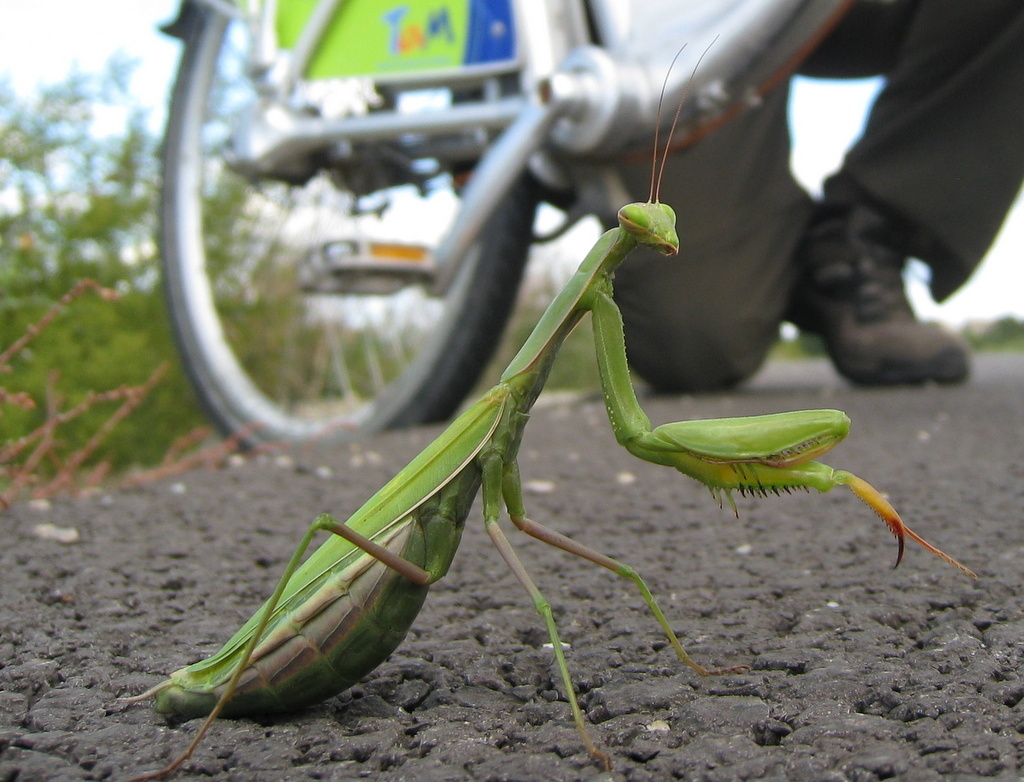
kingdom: Animalia
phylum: Arthropoda
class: Insecta
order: Mantodea
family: Mantidae
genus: Mantis
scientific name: Mantis religiosa
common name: Praying mantis
